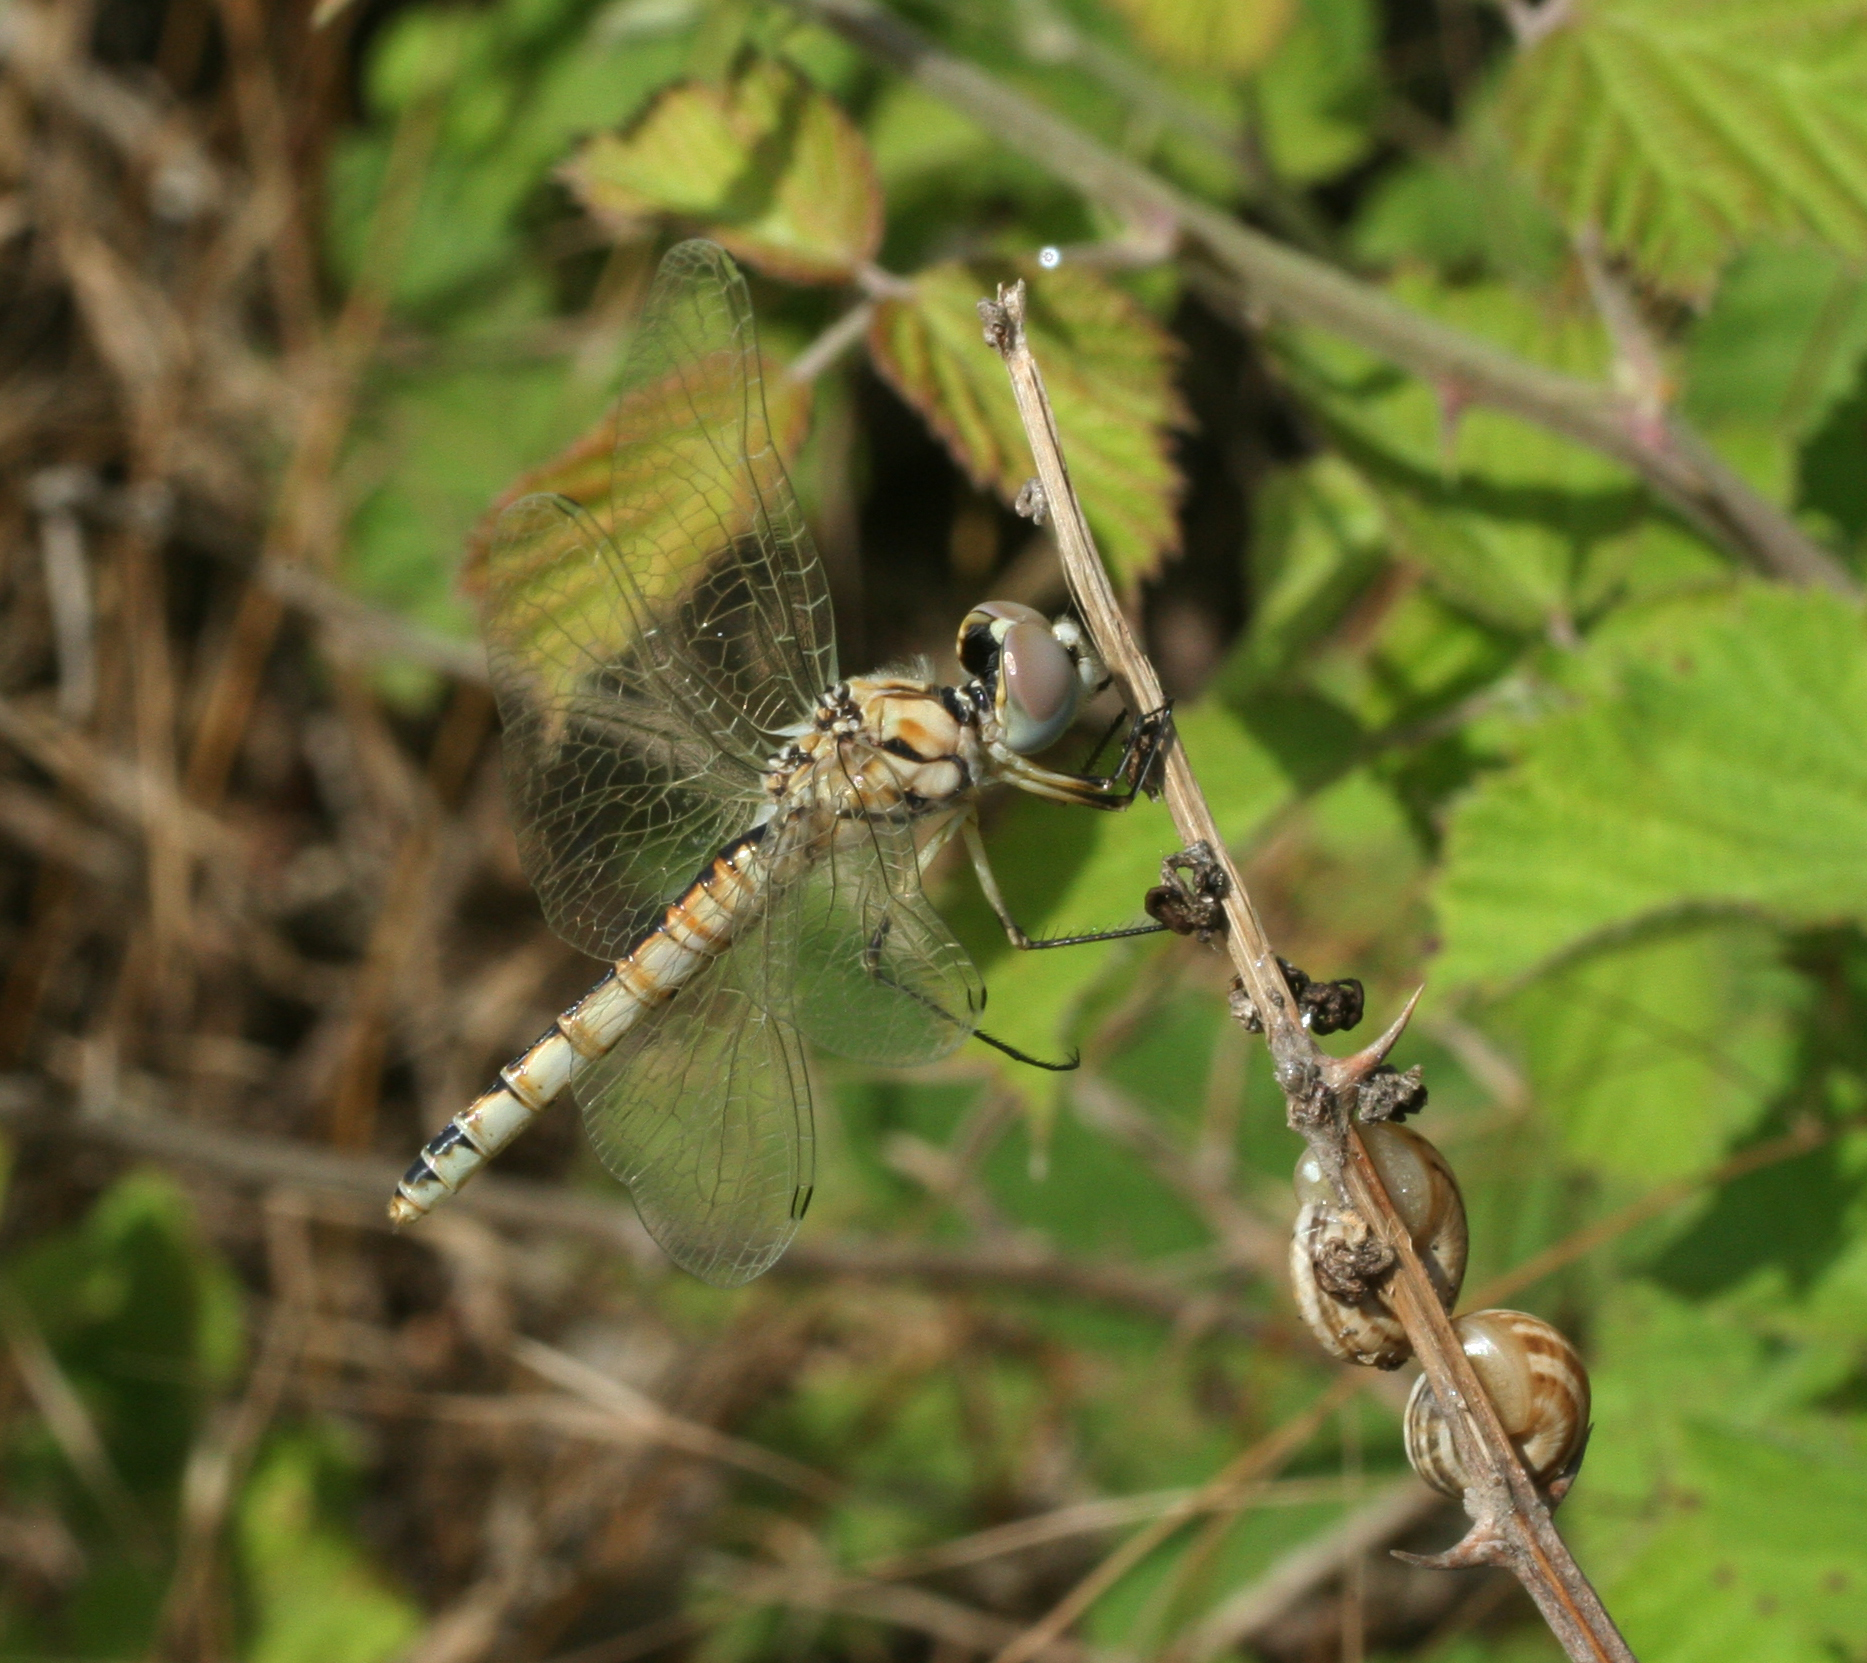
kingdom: Animalia
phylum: Arthropoda
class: Insecta
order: Odonata
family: Libellulidae
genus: Selysiothemis
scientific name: Selysiothemis nigra
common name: Black pennant
